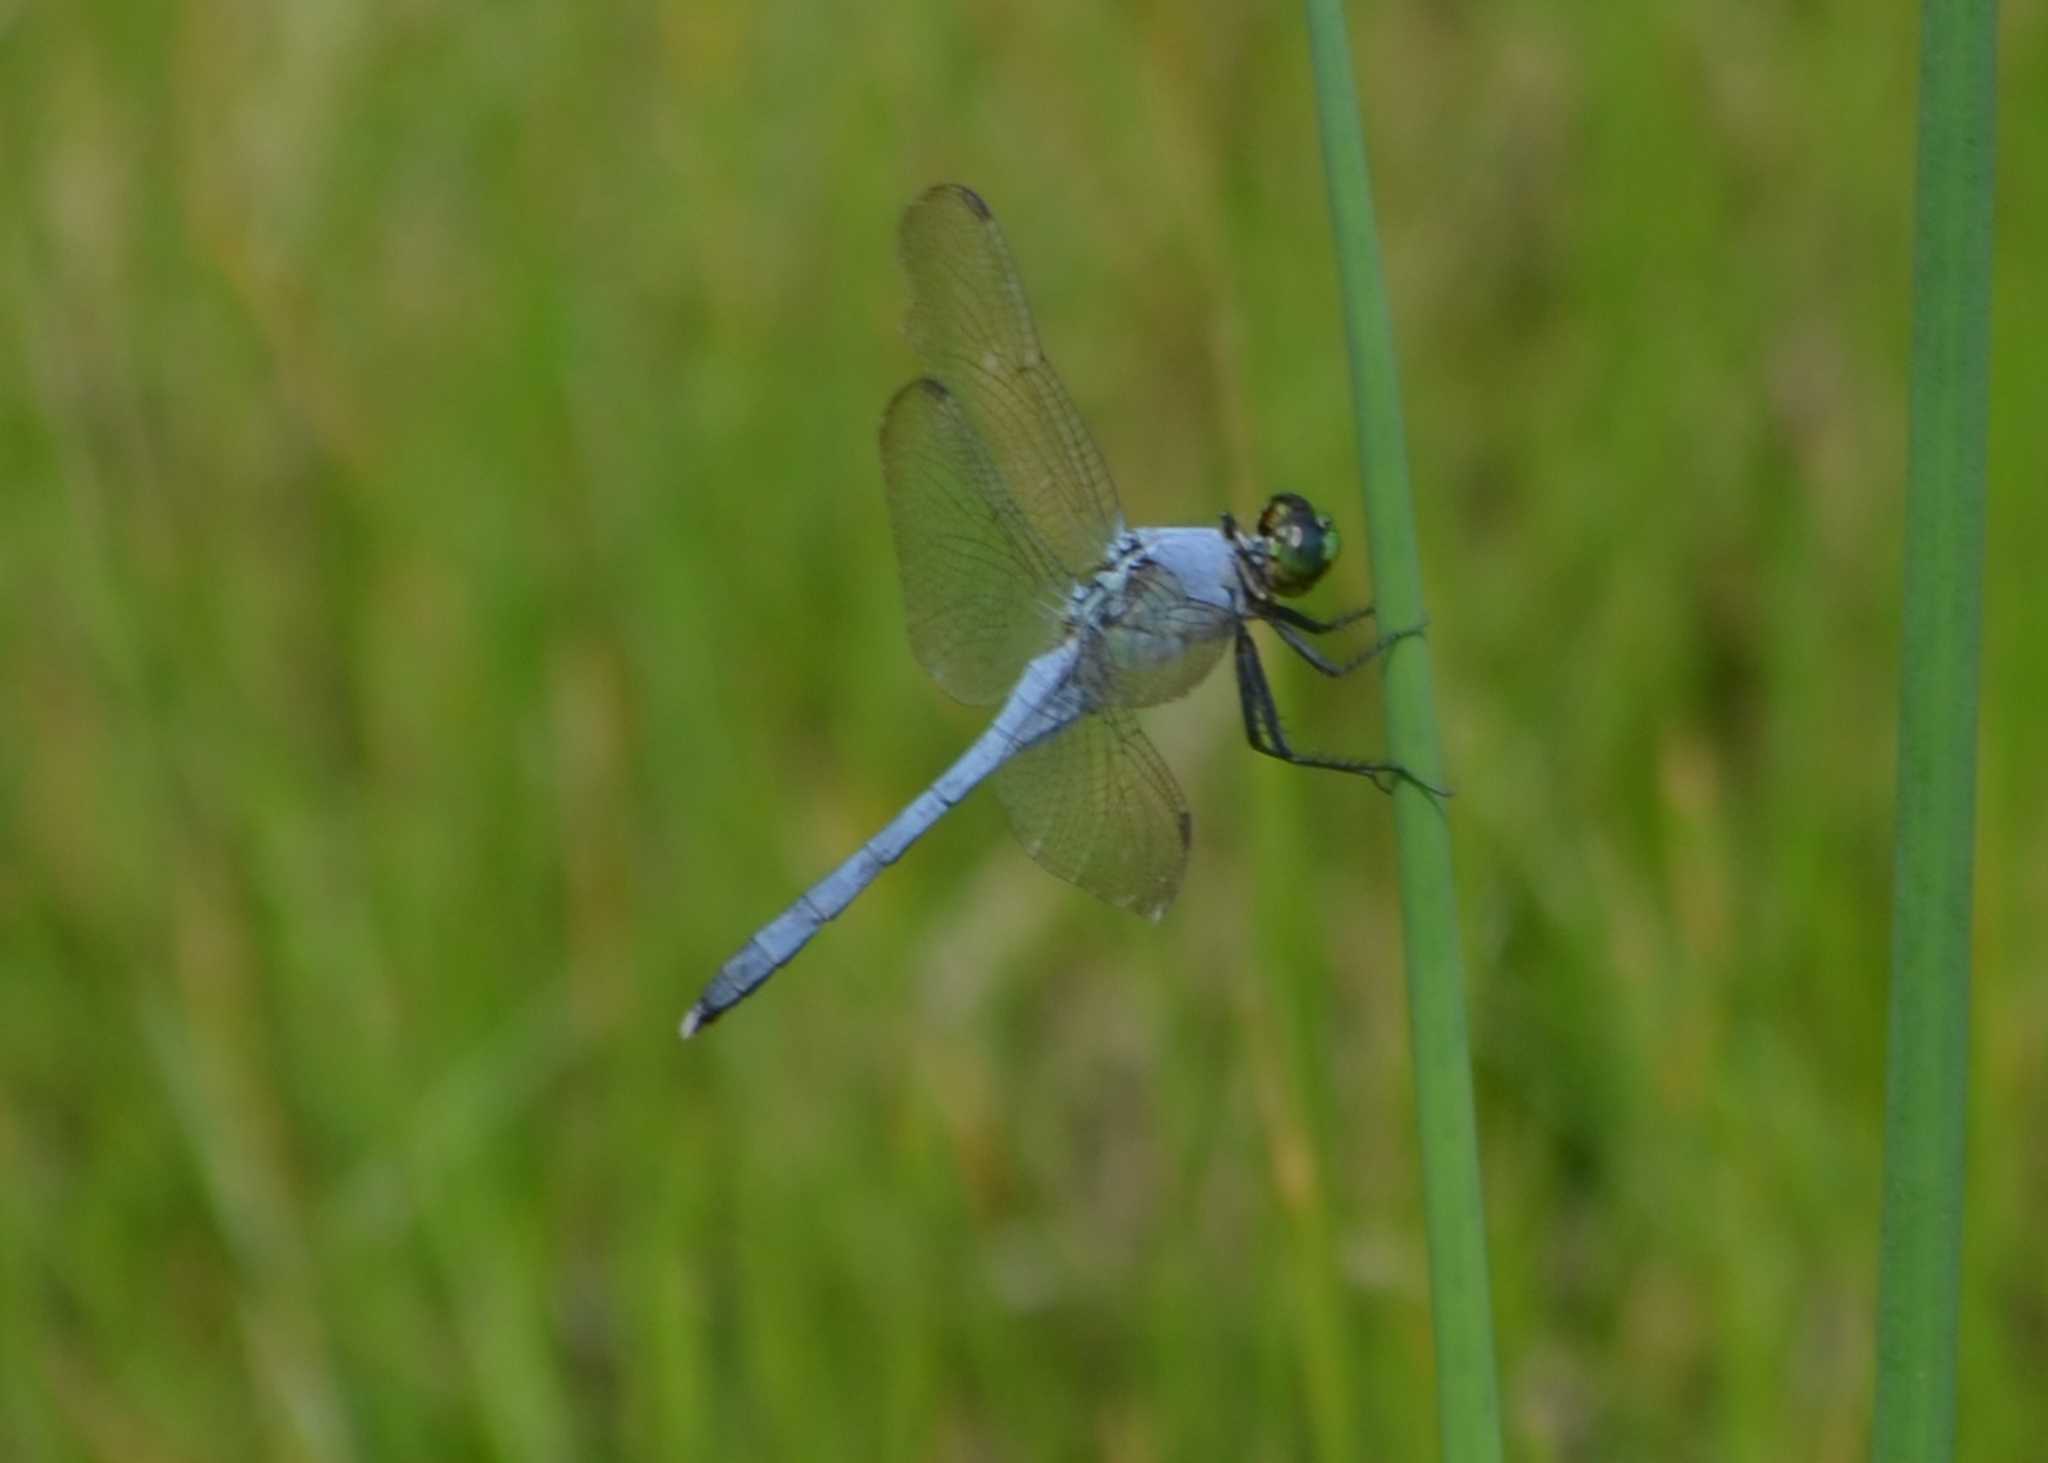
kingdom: Animalia
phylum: Arthropoda
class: Insecta
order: Odonata
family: Libellulidae
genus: Erythemis
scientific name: Erythemis simplicicollis
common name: Eastern pondhawk
